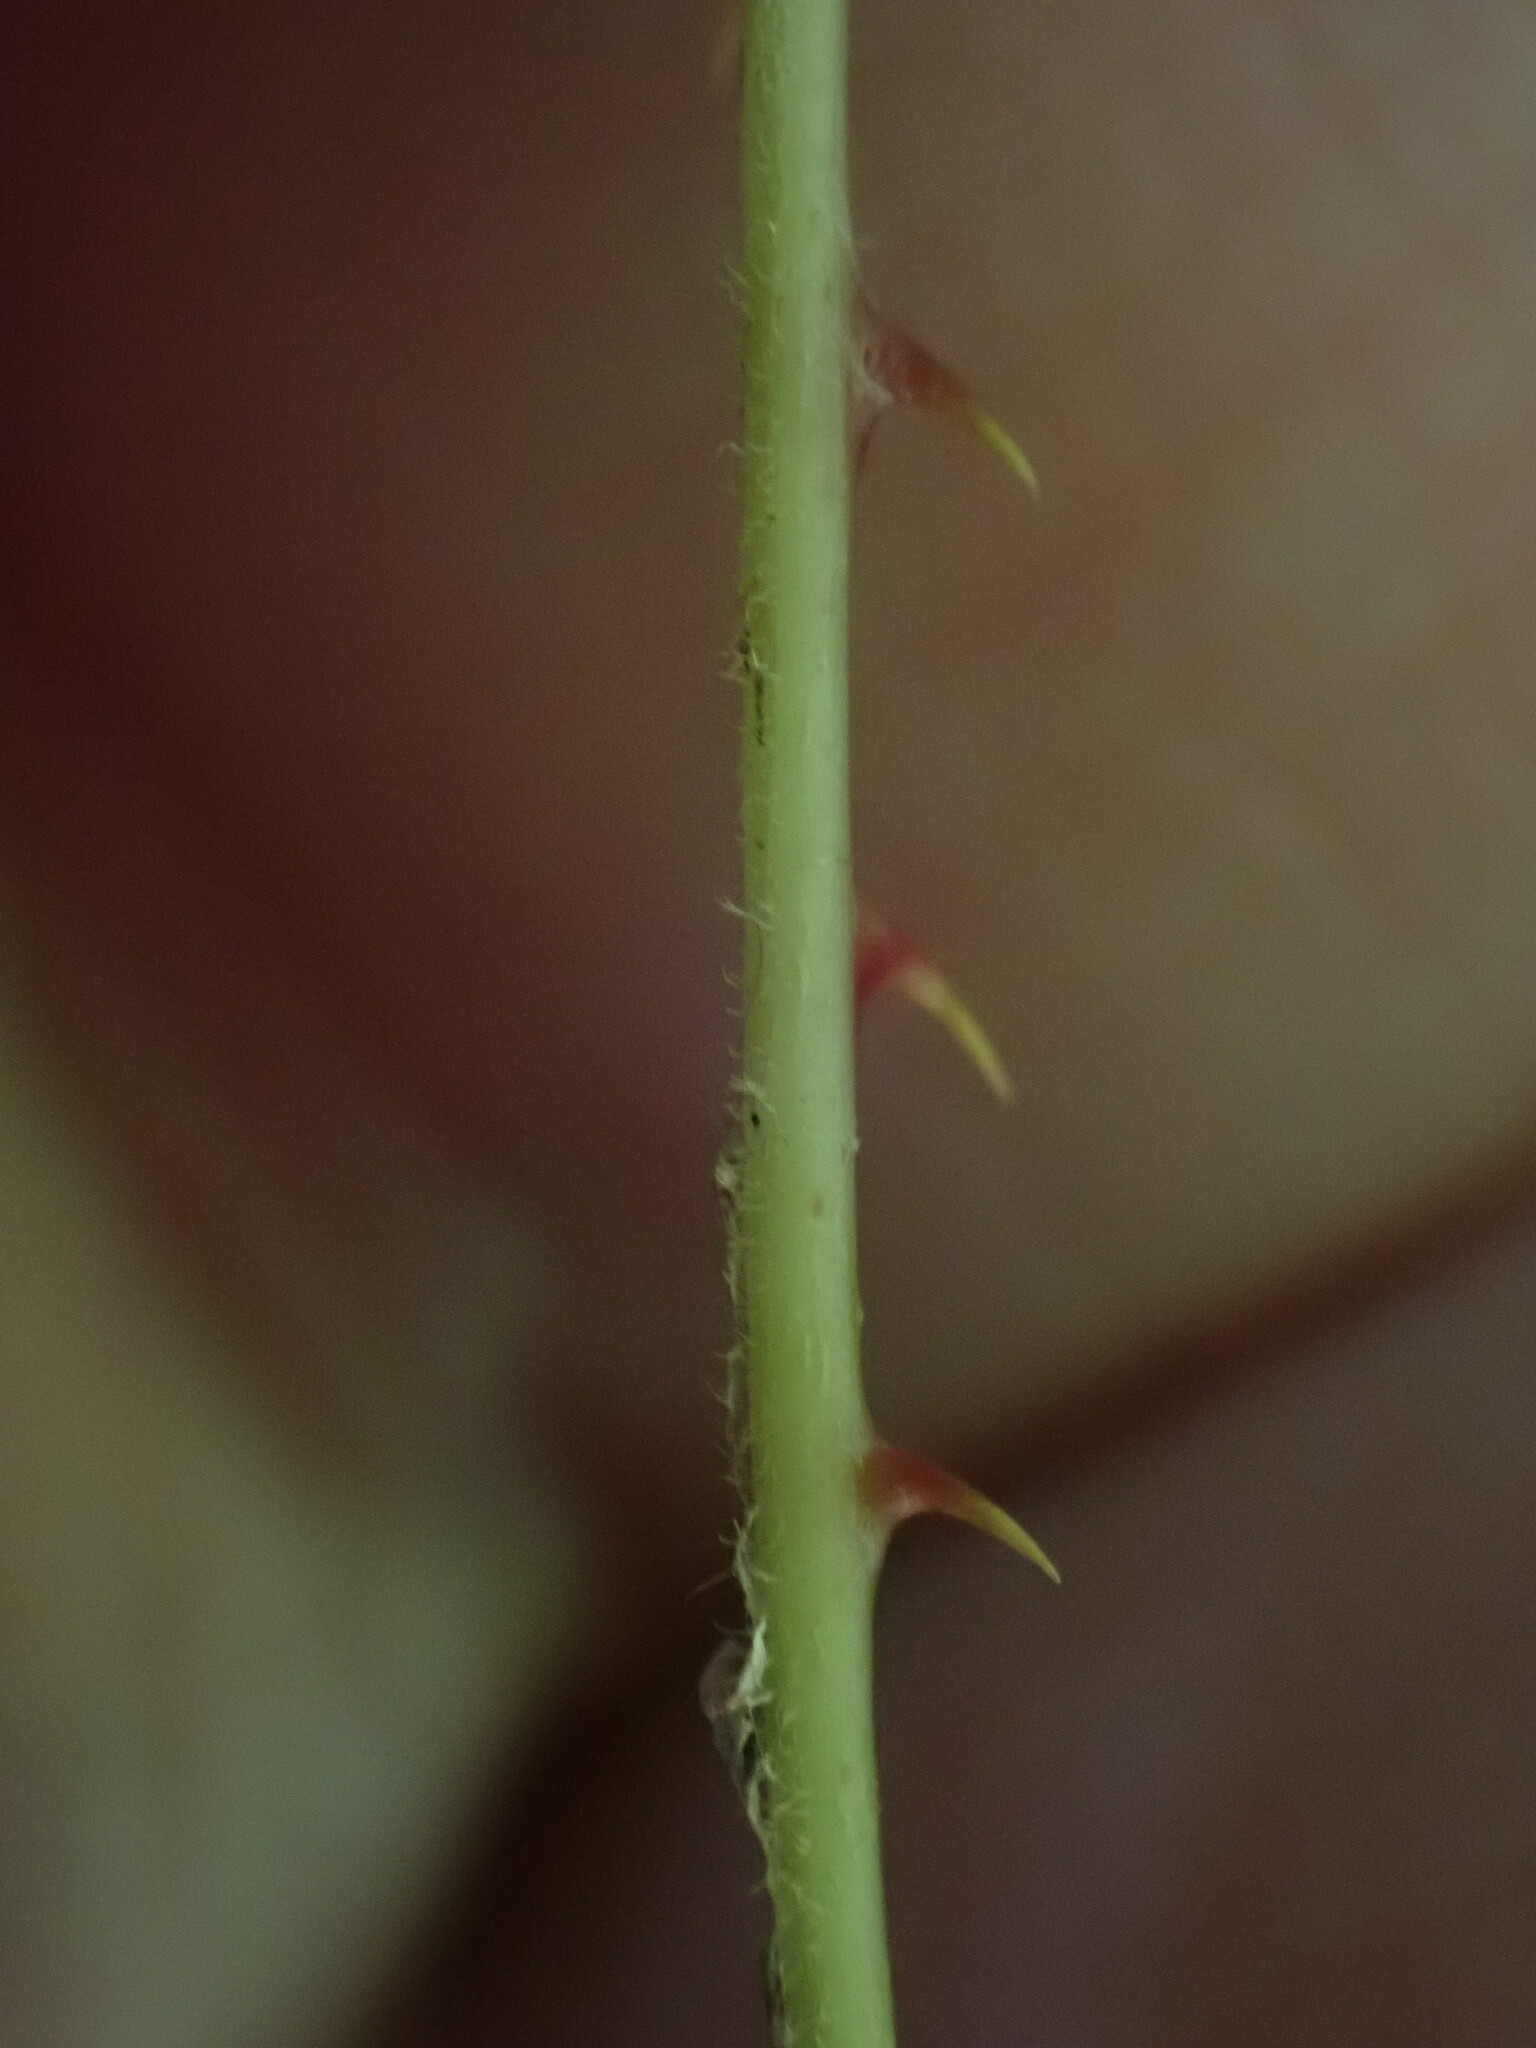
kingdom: Plantae
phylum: Tracheophyta
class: Magnoliopsida
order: Rosales
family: Rosaceae
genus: Rubus
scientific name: Rubus cissoides
